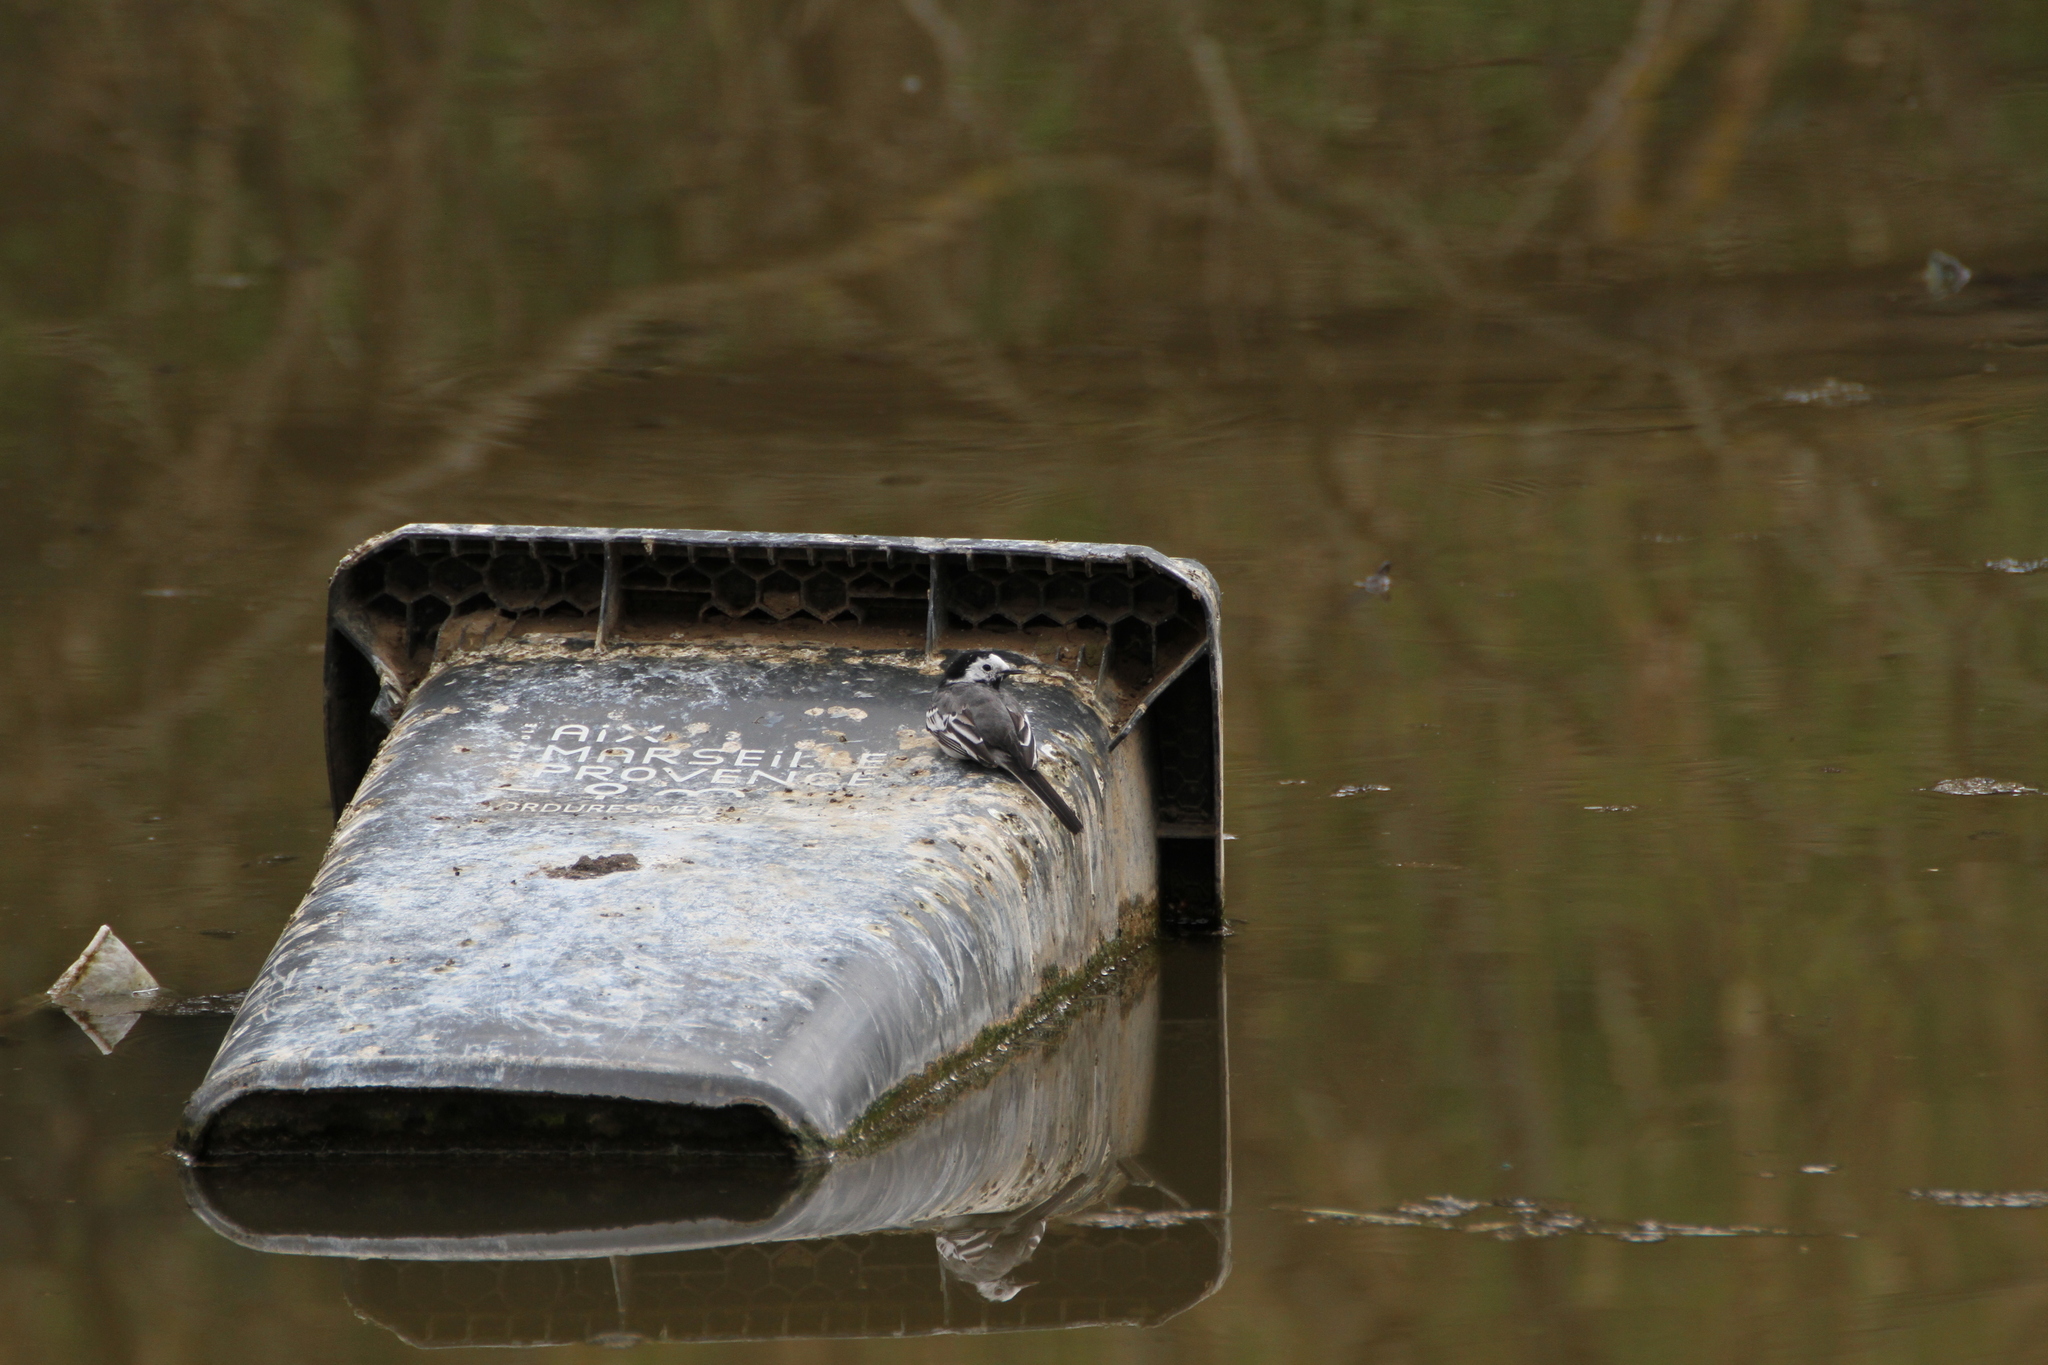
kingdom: Animalia
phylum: Chordata
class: Aves
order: Passeriformes
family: Motacillidae
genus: Motacilla
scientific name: Motacilla alba
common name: White wagtail
